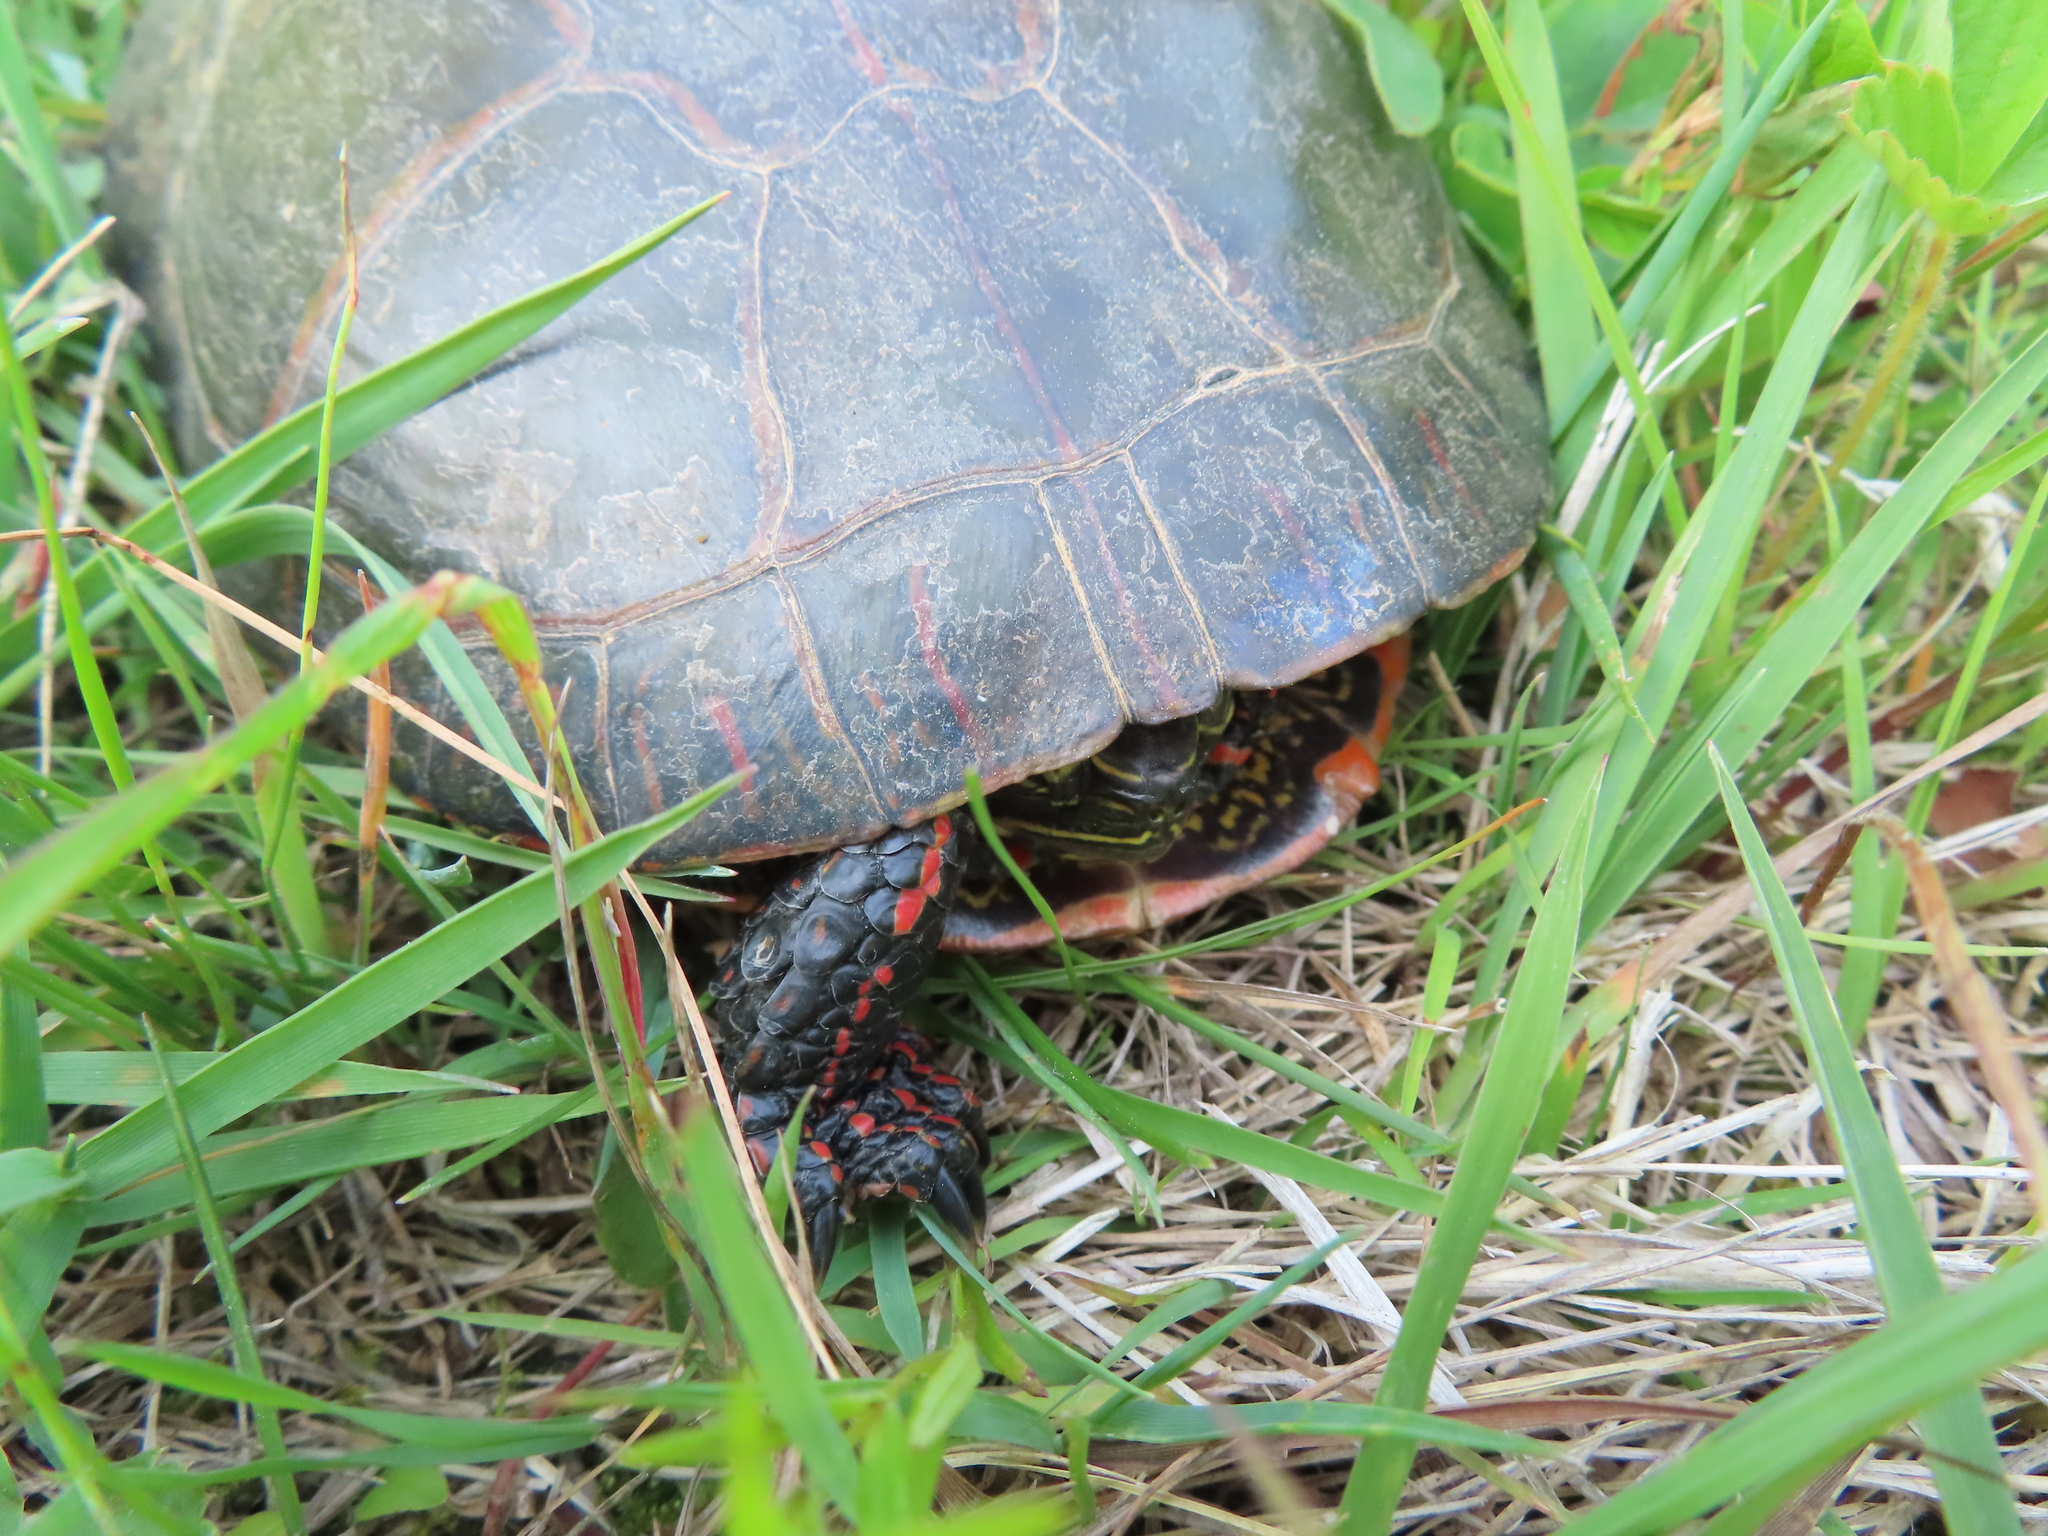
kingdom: Animalia
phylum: Chordata
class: Testudines
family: Emydidae
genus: Chrysemys
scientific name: Chrysemys picta
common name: Painted turtle
